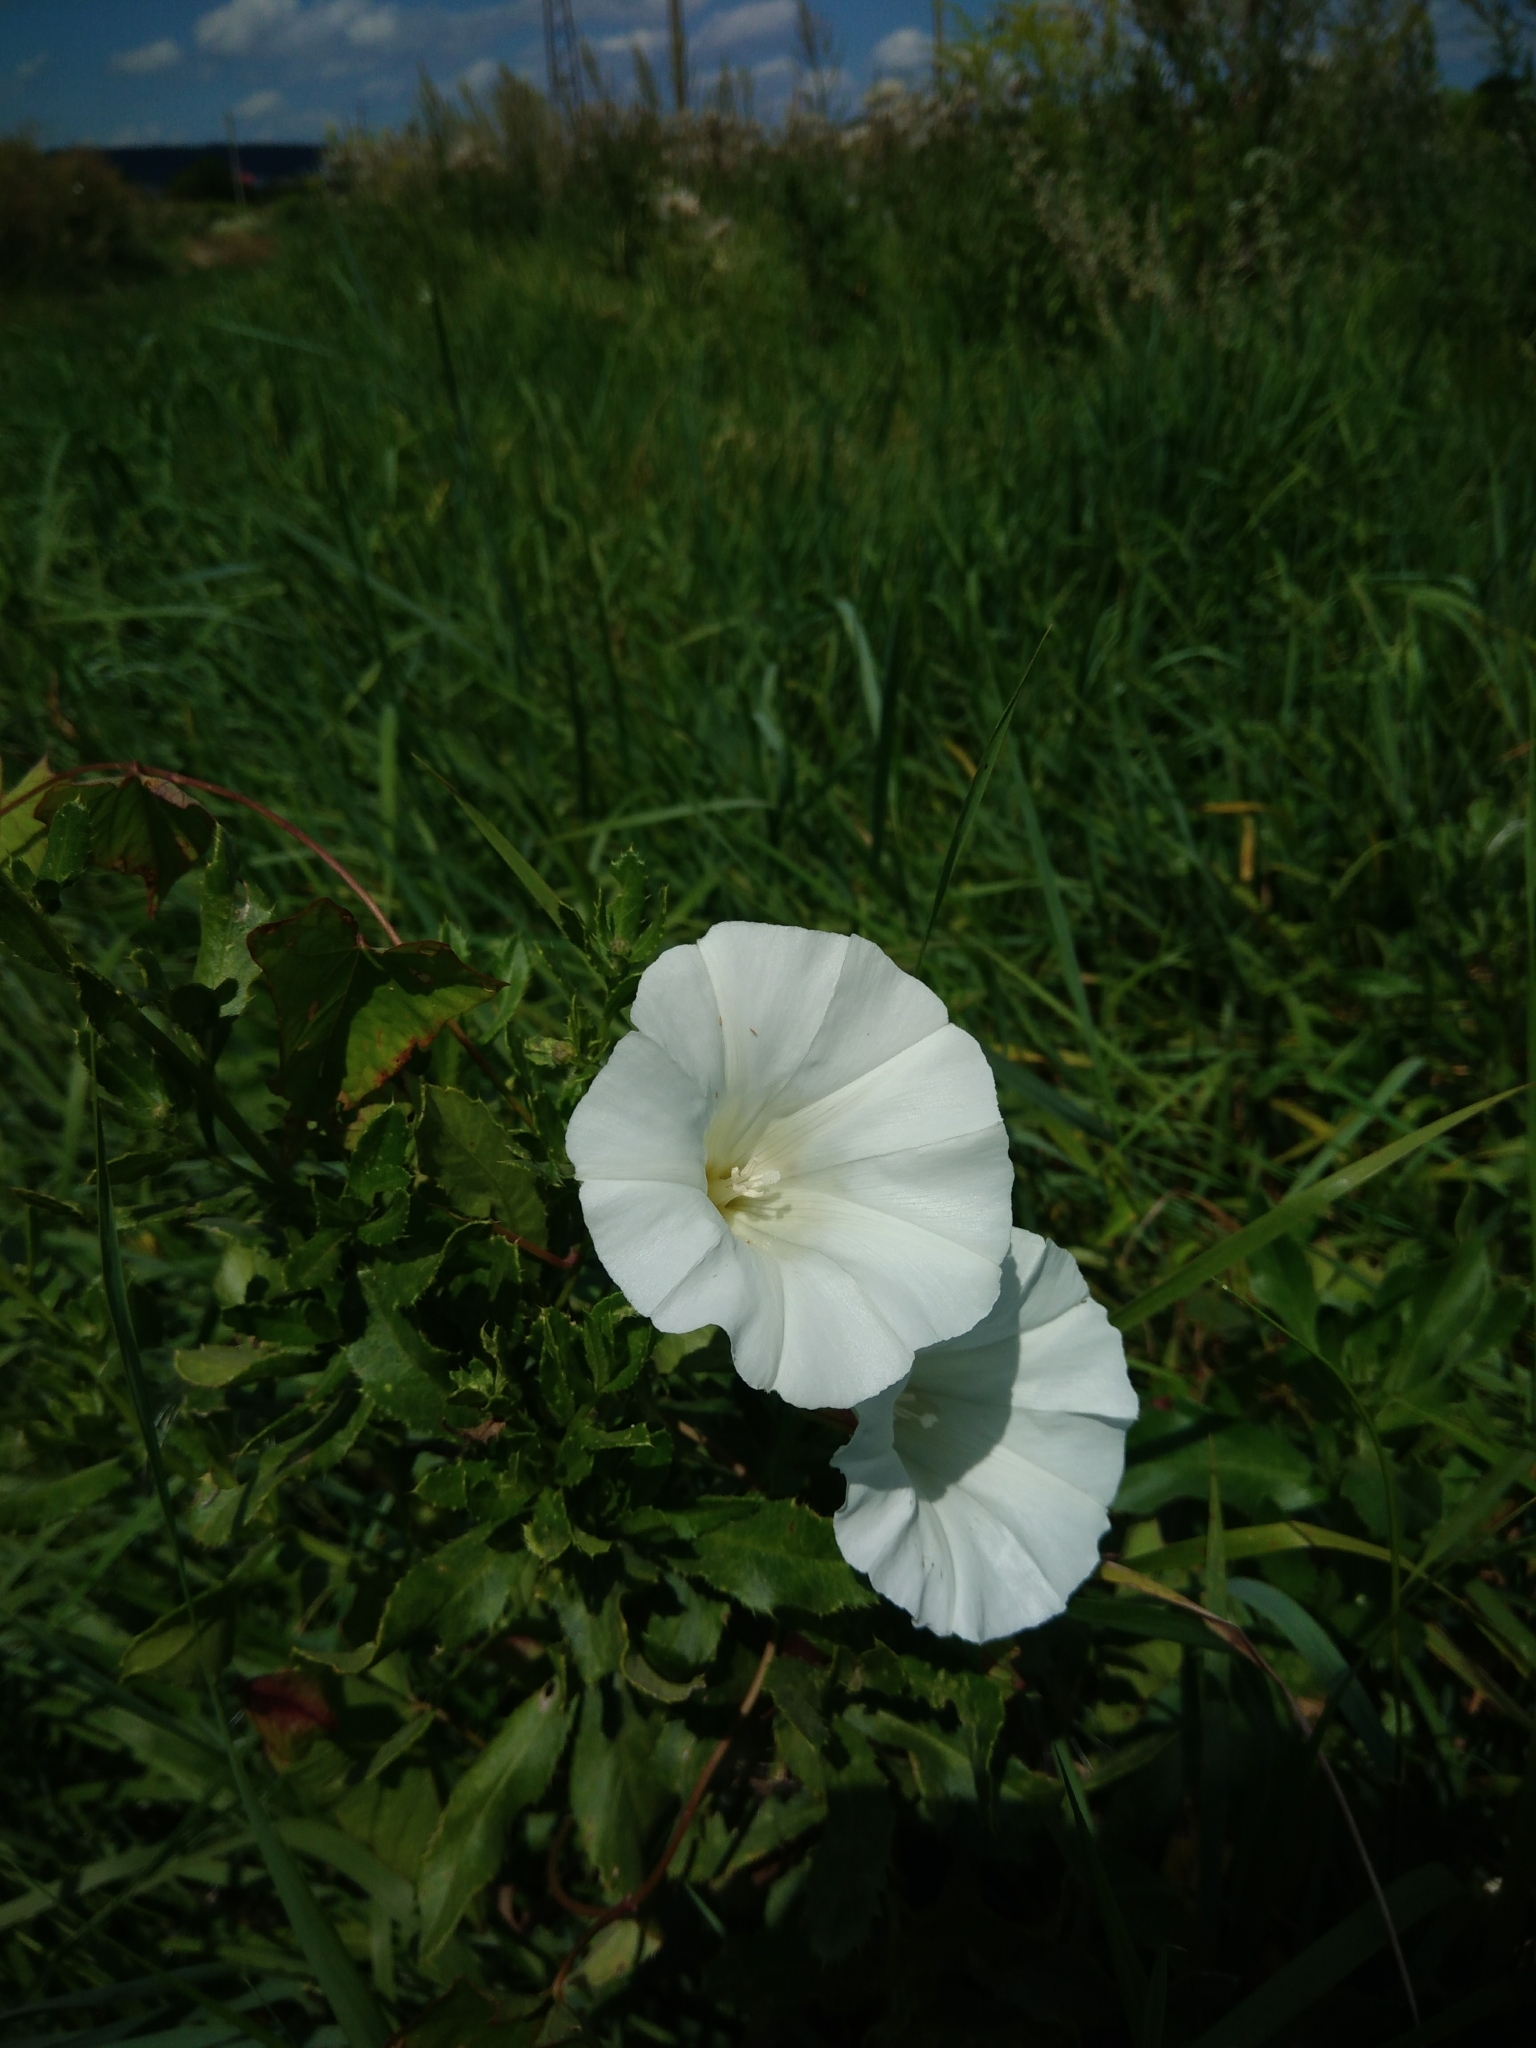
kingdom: Plantae
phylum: Tracheophyta
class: Magnoliopsida
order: Solanales
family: Convolvulaceae
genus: Calystegia
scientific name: Calystegia sepium
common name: Hedge bindweed
